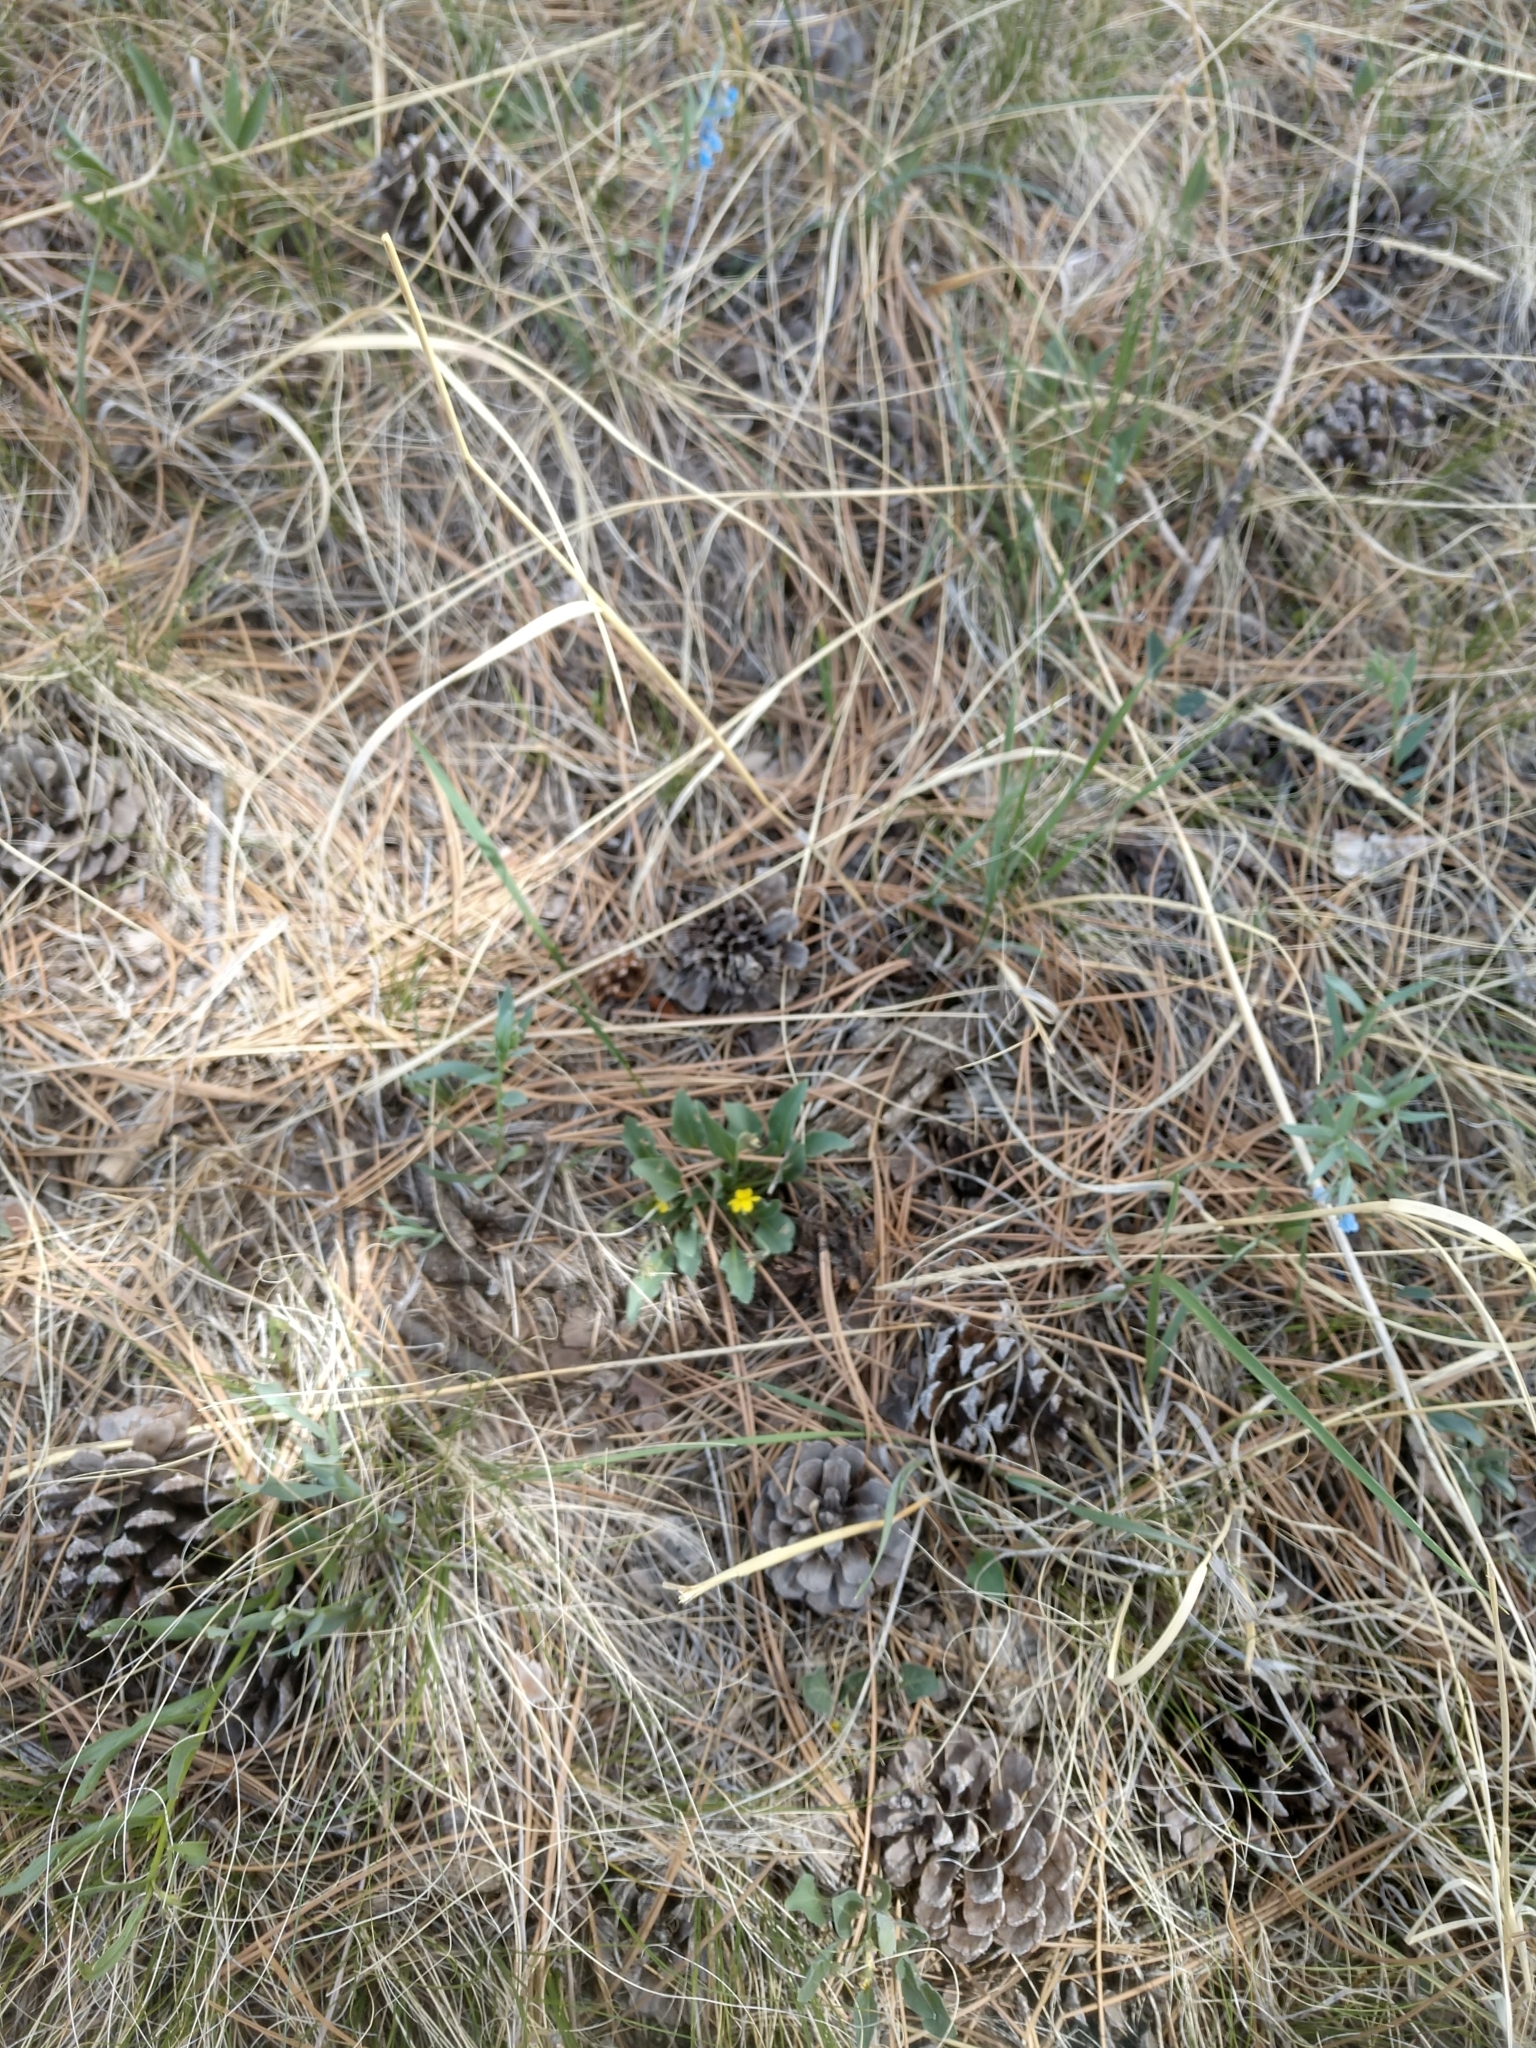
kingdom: Plantae
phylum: Tracheophyta
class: Magnoliopsida
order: Malpighiales
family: Violaceae
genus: Viola
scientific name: Viola nuttallii
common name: Yellow prairie violet
